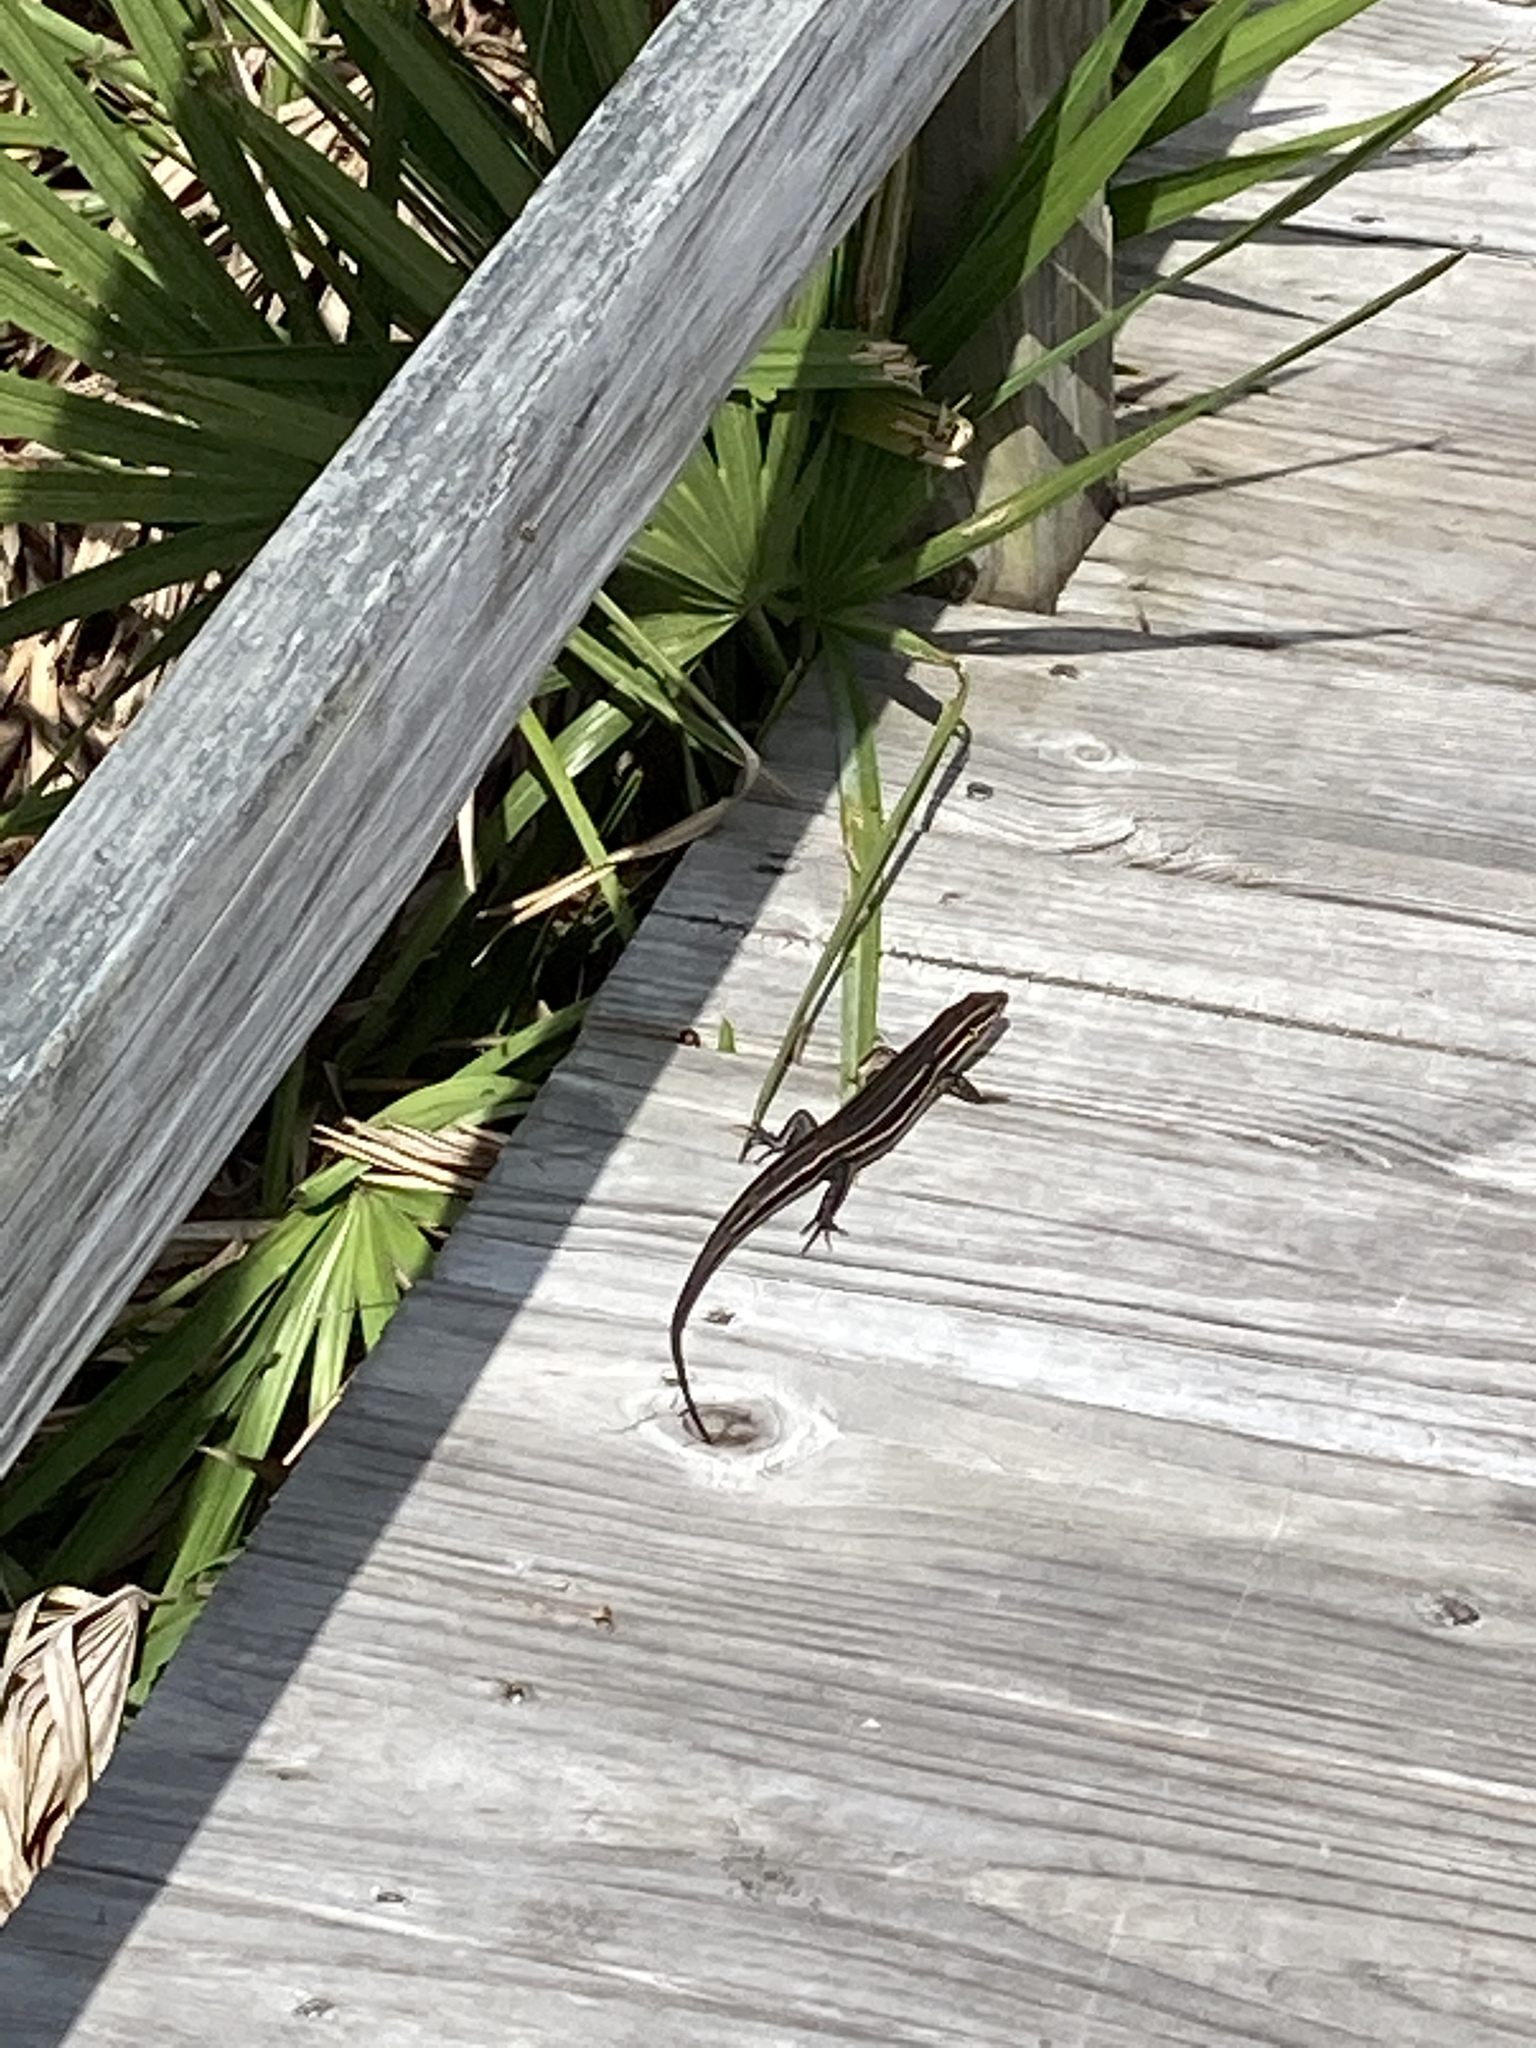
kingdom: Animalia
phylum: Chordata
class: Squamata
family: Scincidae
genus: Plestiodon
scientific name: Plestiodon laticeps
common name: Broadhead skink
